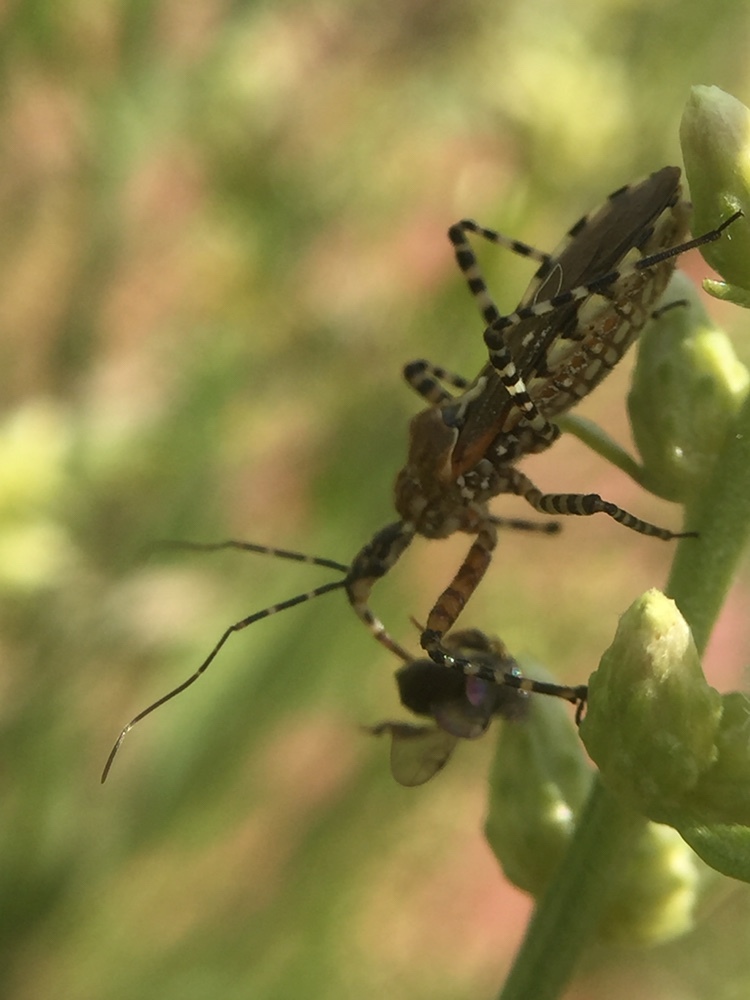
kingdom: Animalia
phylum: Arthropoda
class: Insecta
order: Hemiptera
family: Reduviidae
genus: Cosmoclopius
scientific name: Cosmoclopius nigroannulatus
